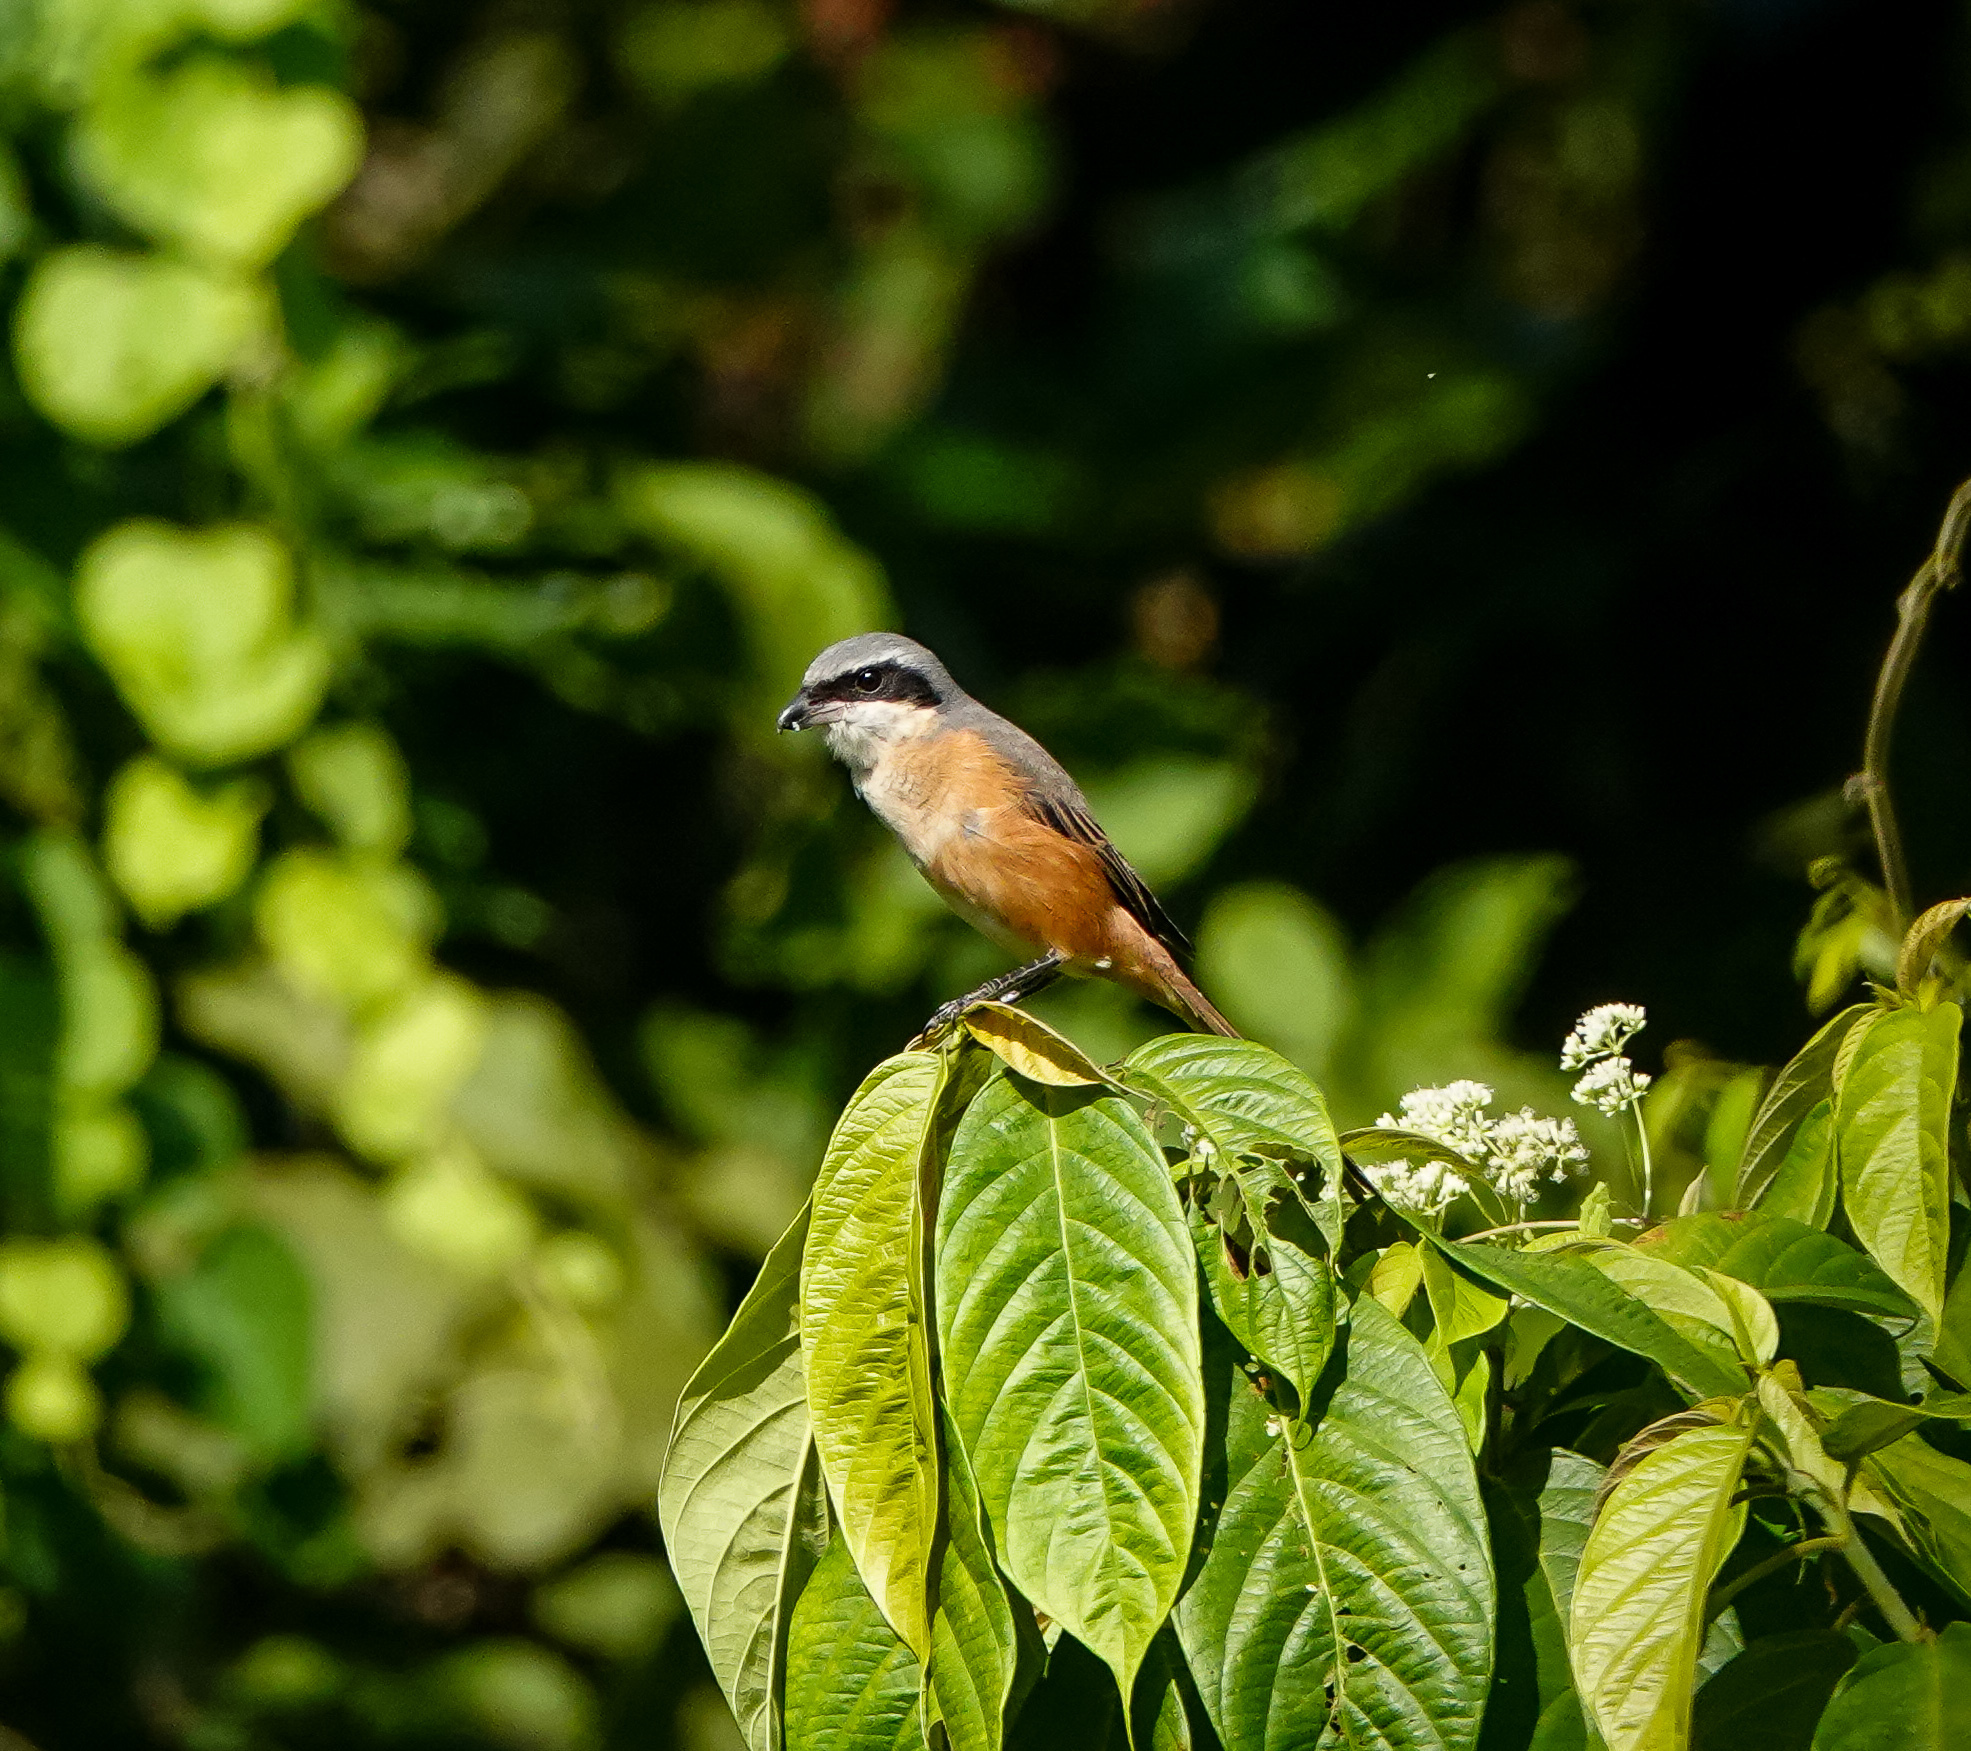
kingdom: Animalia
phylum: Chordata
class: Aves
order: Passeriformes
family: Laniidae
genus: Lanius
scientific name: Lanius tephronotus
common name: Grey-backed shrike
